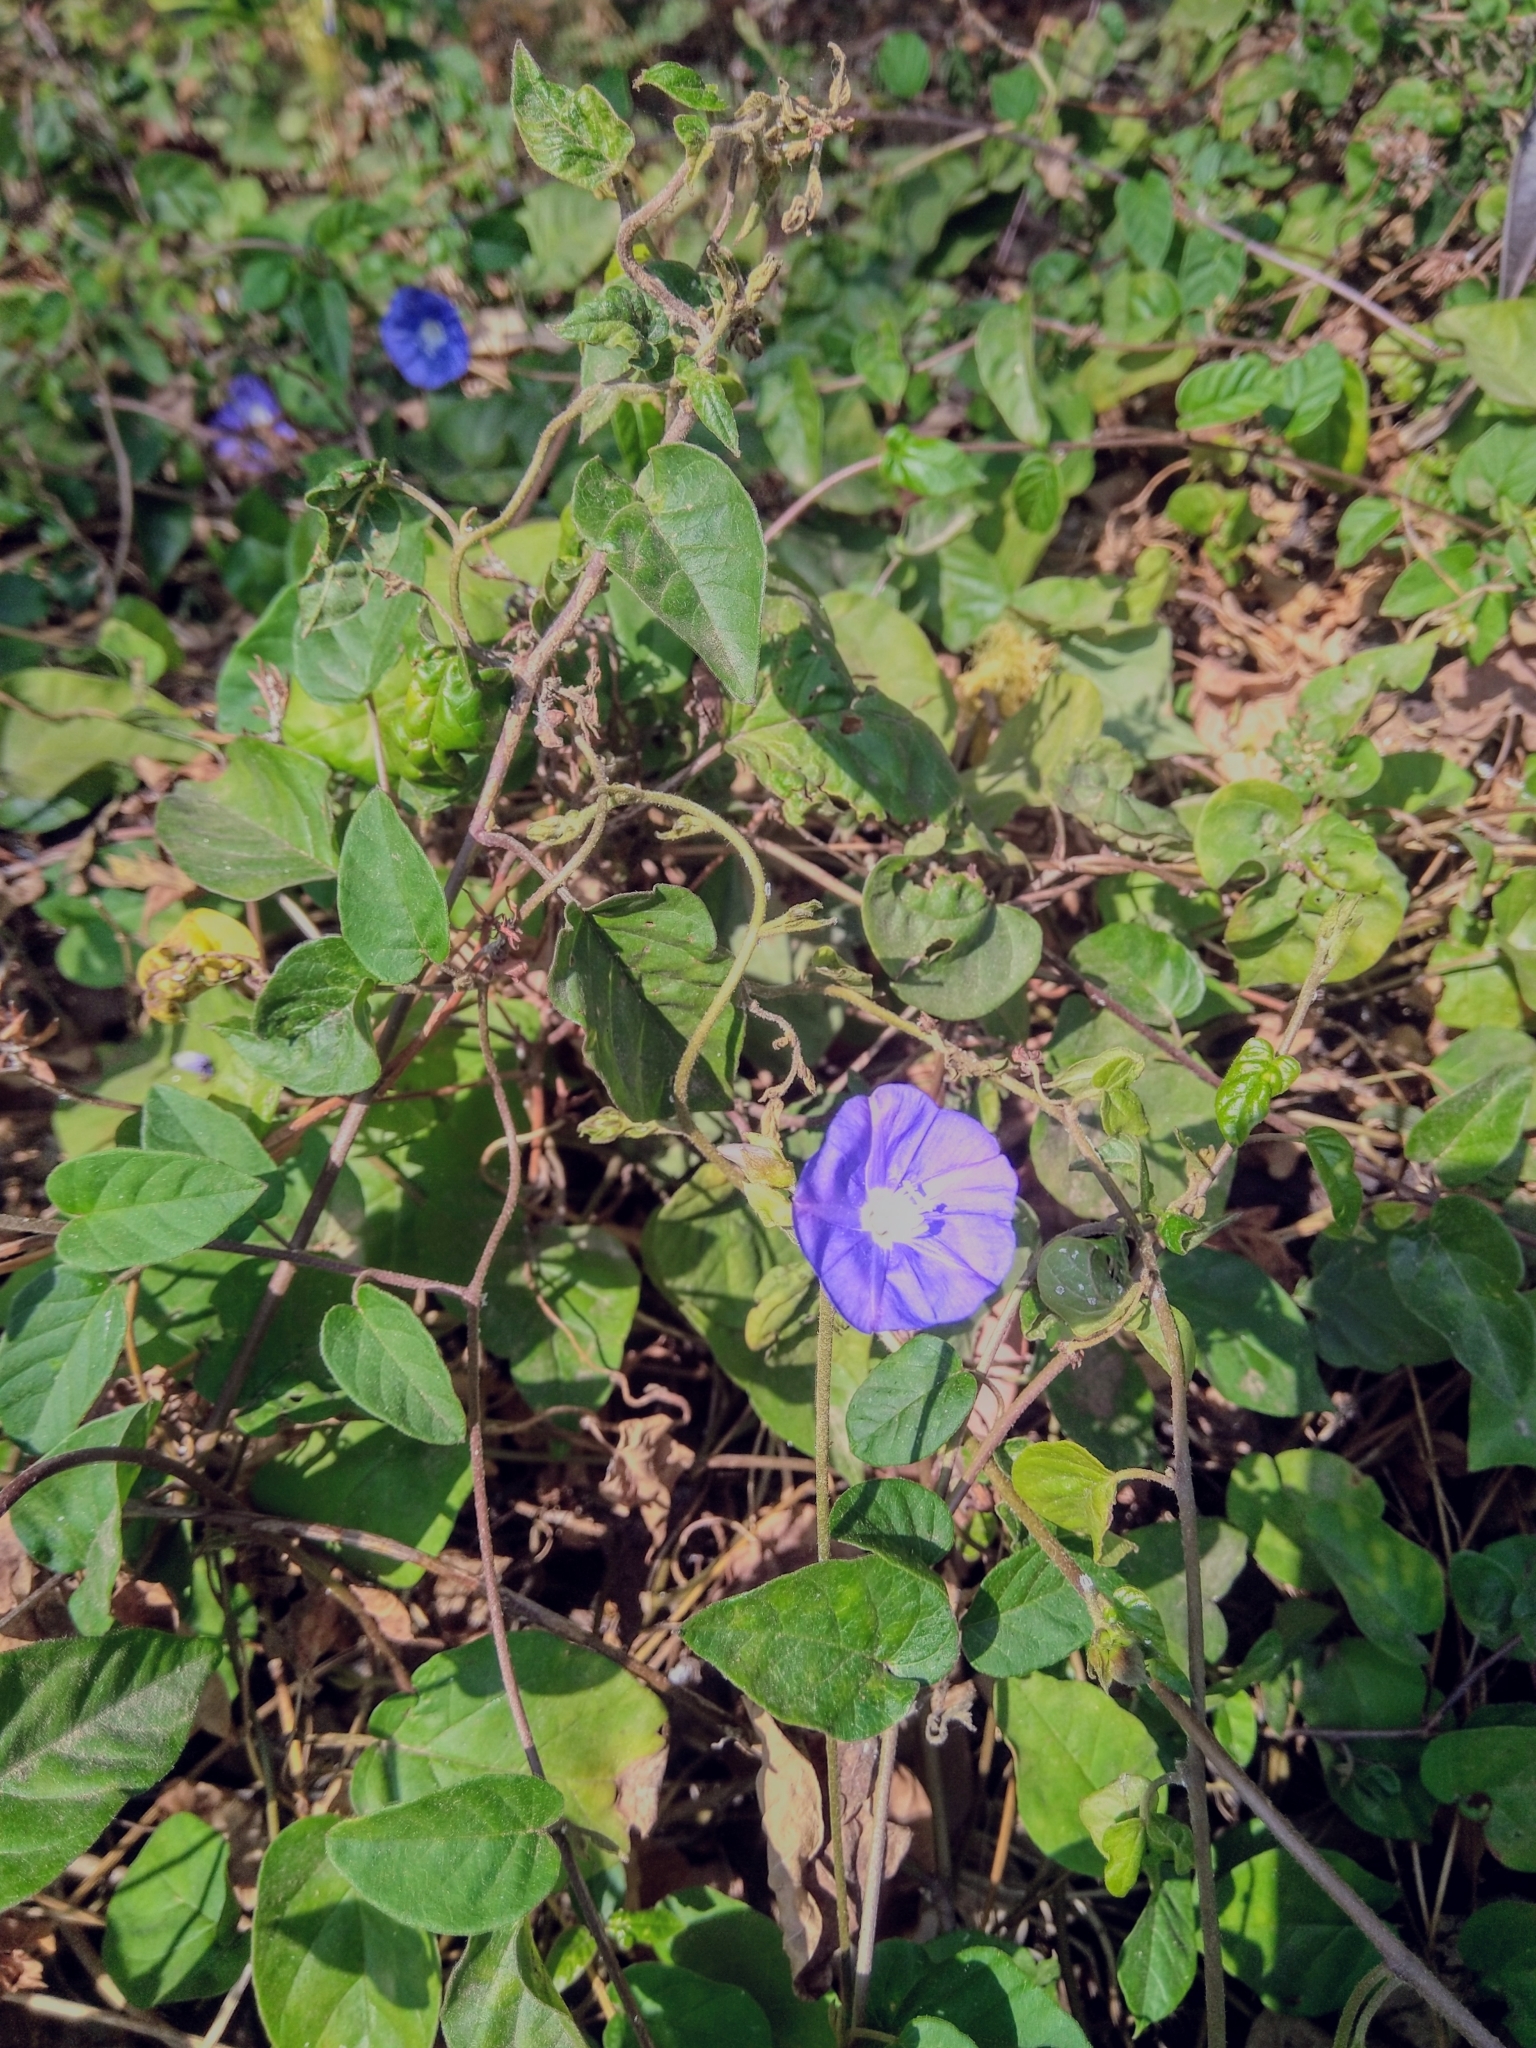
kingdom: Plantae
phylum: Tracheophyta
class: Magnoliopsida
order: Solanales
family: Convolvulaceae
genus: Jacquemontia
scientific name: Jacquemontia pentanthos
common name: Skyblue clustervine
